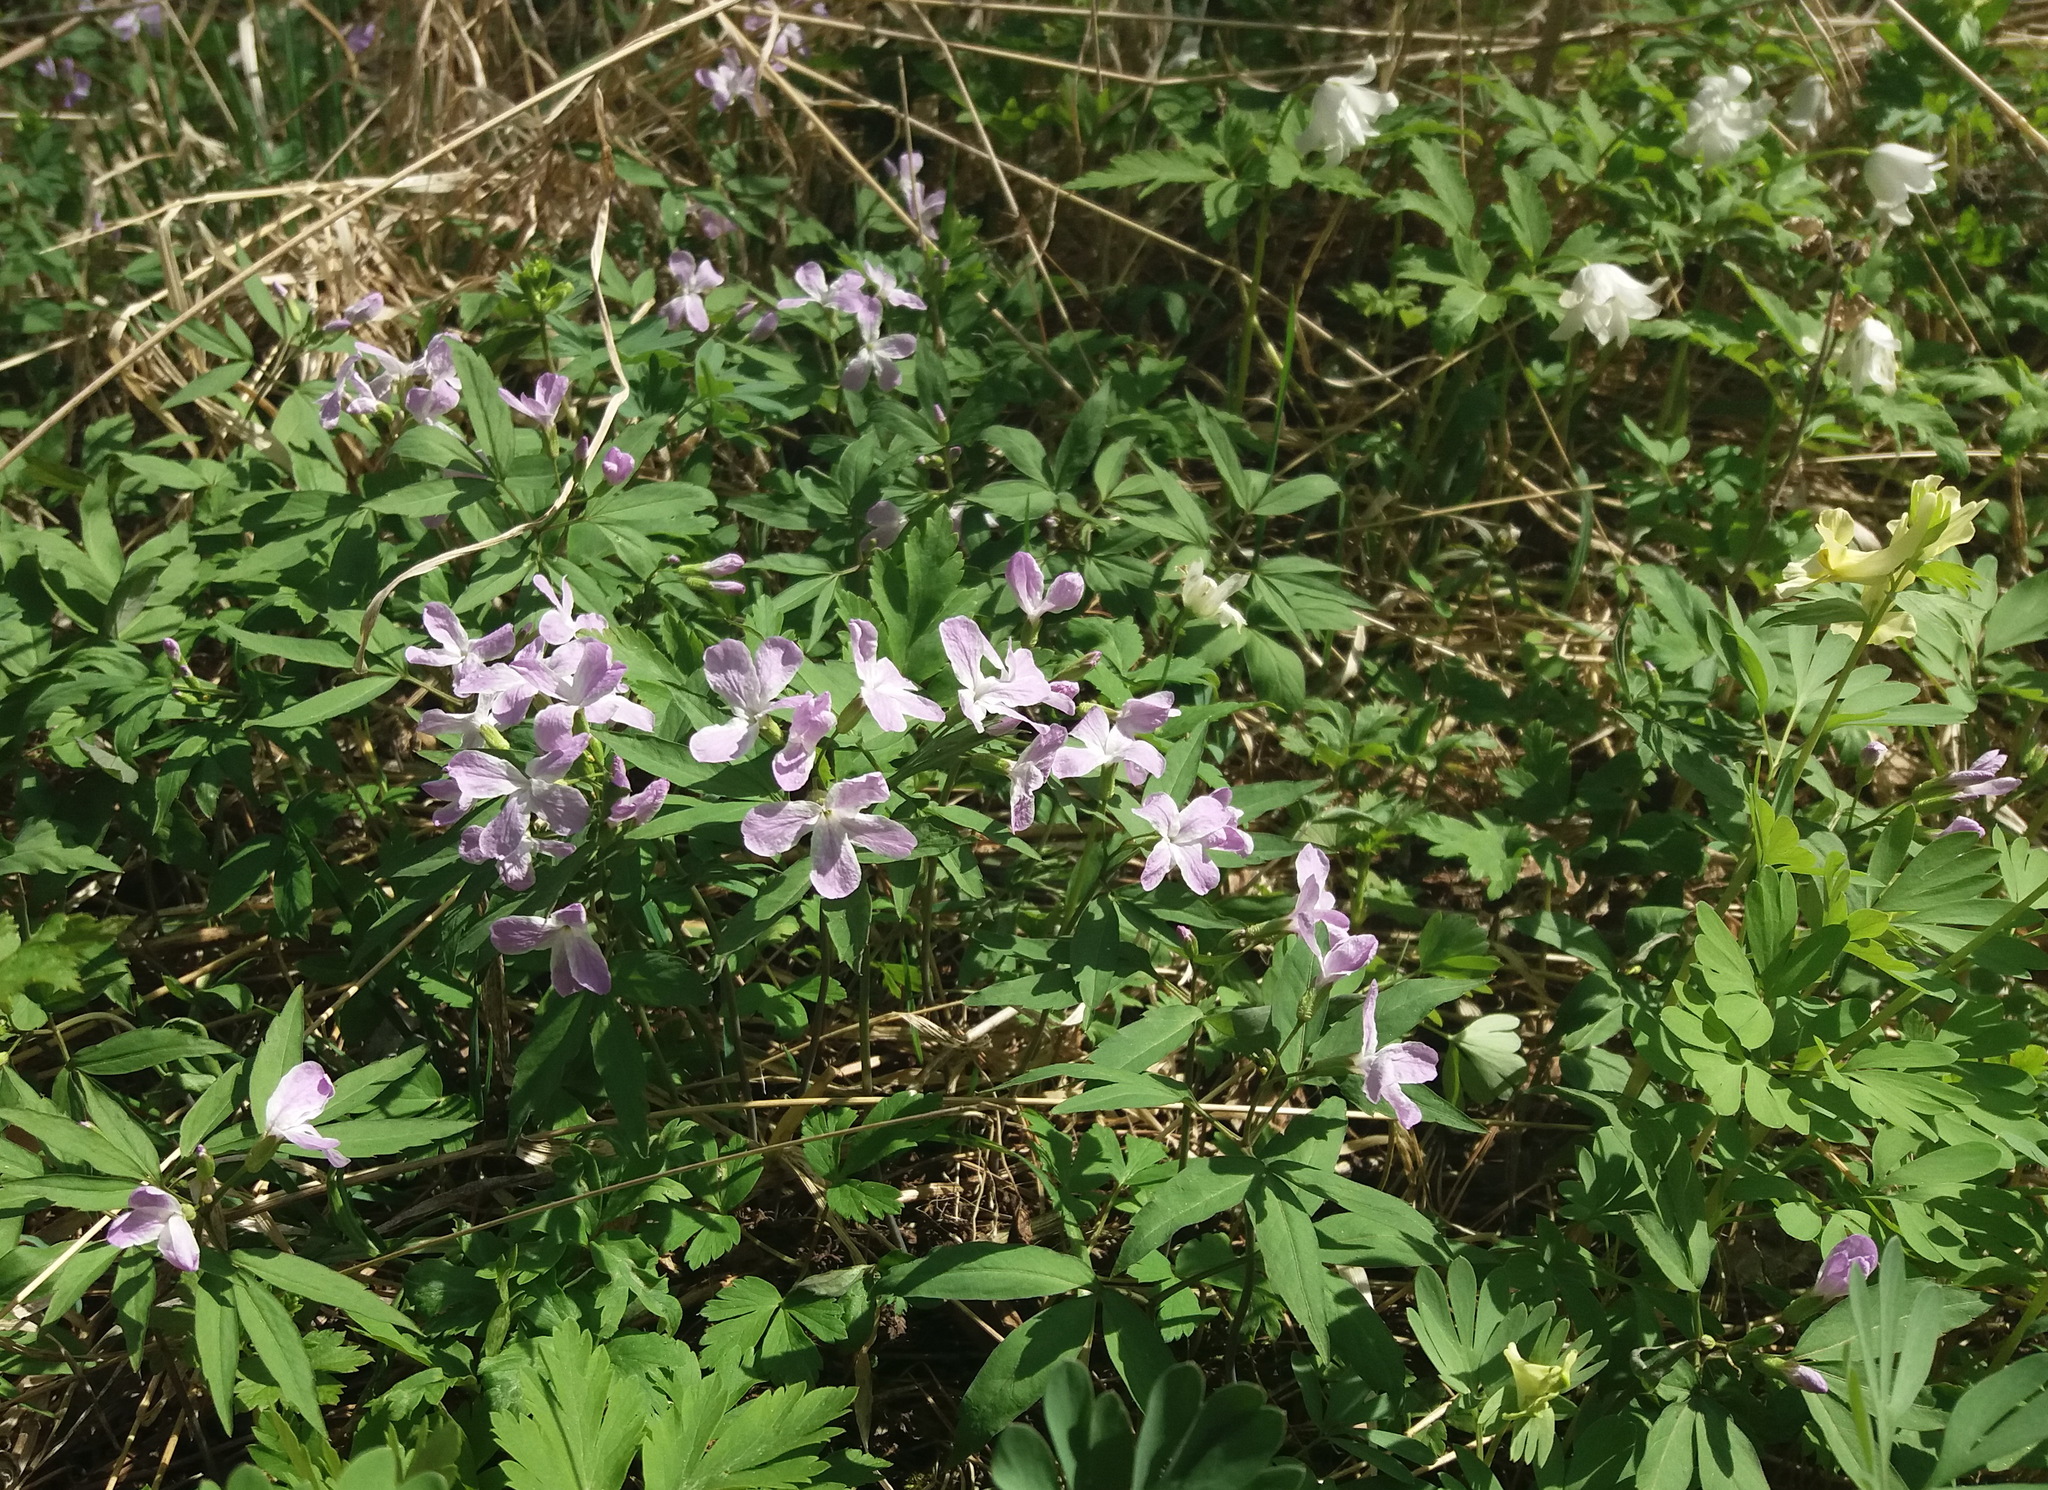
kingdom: Plantae
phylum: Tracheophyta
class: Magnoliopsida
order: Brassicales
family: Brassicaceae
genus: Cardamine
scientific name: Cardamine altaica
